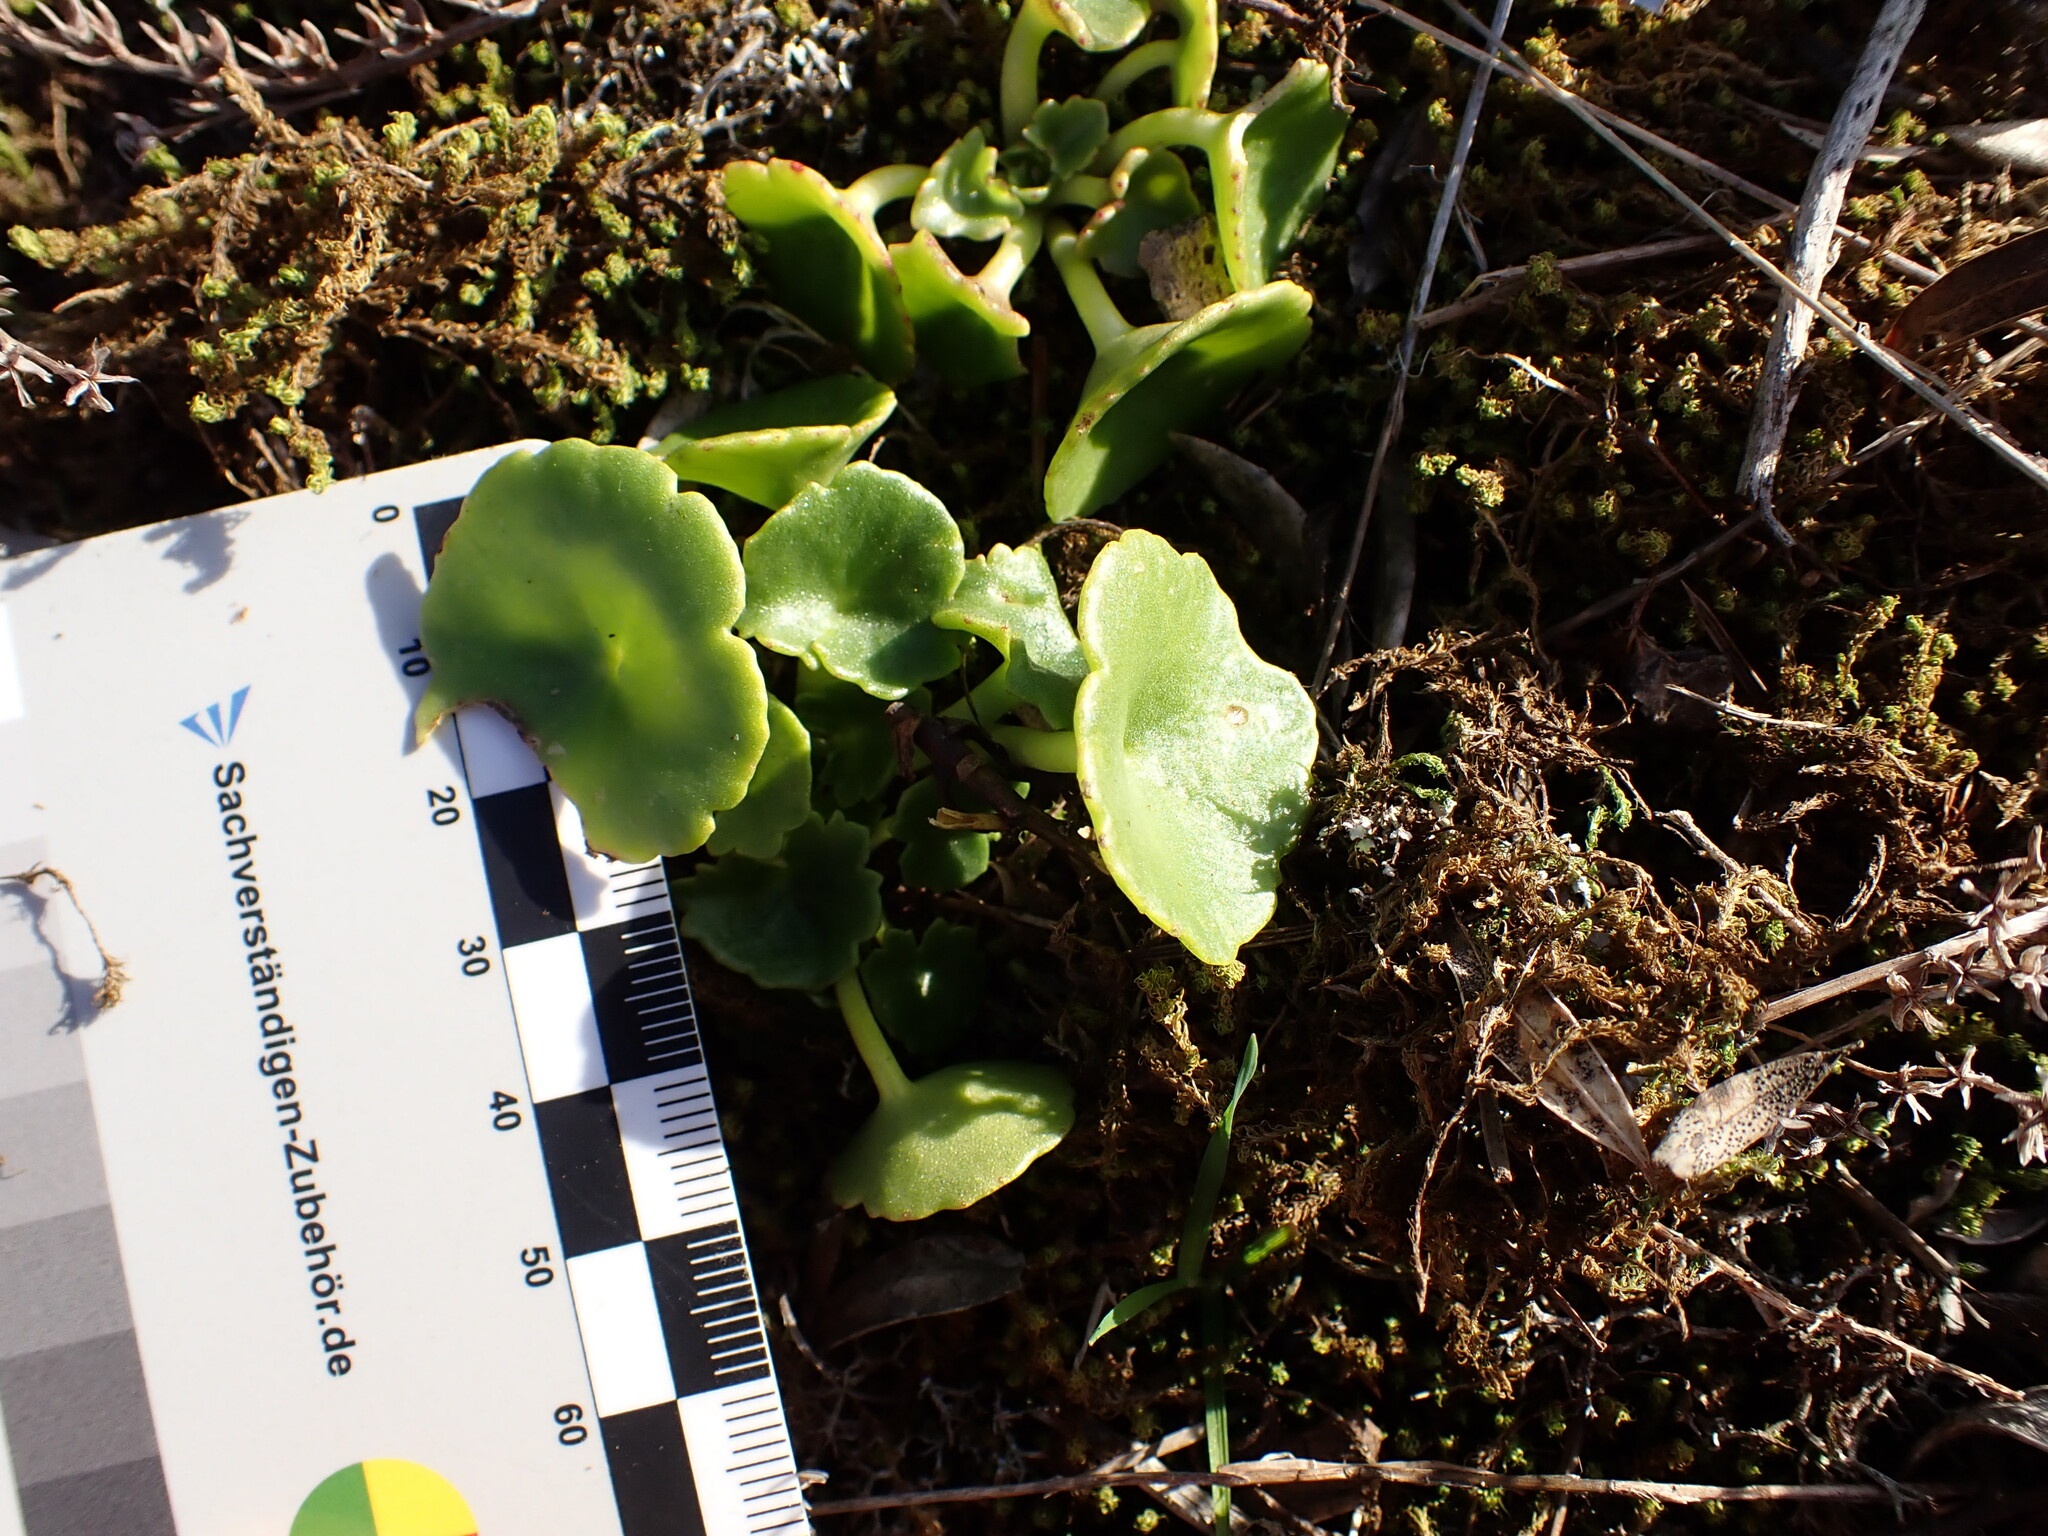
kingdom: Plantae
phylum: Tracheophyta
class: Magnoliopsida
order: Saxifragales
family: Crassulaceae
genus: Umbilicus
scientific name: Umbilicus rupestris
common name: Navelwort
